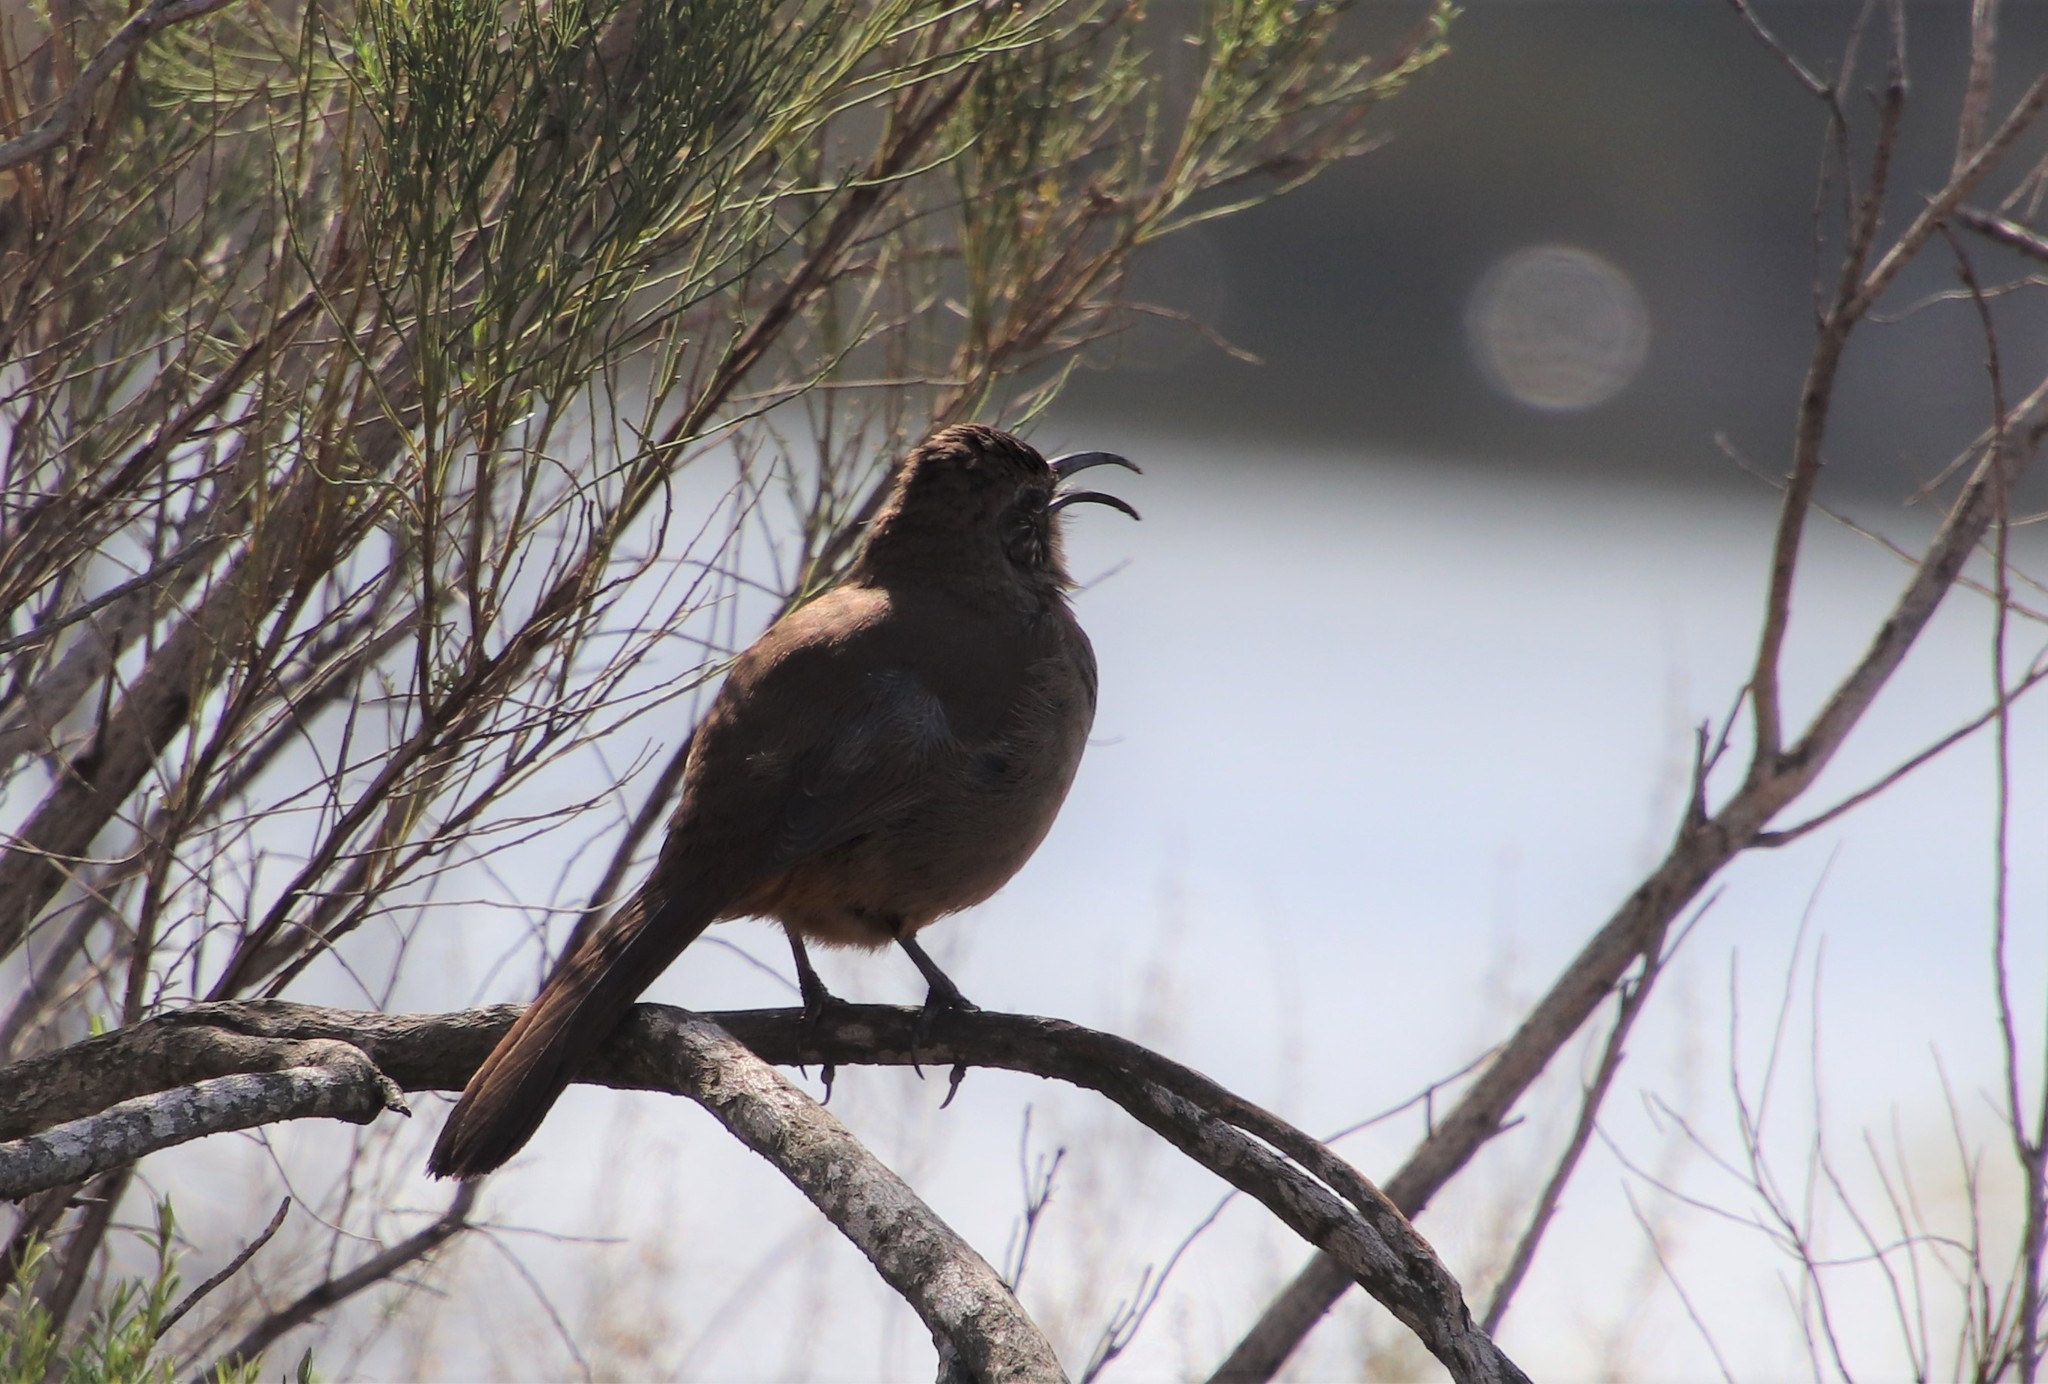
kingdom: Animalia
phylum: Chordata
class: Aves
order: Passeriformes
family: Mimidae
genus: Toxostoma
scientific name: Toxostoma redivivum
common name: California thrasher
